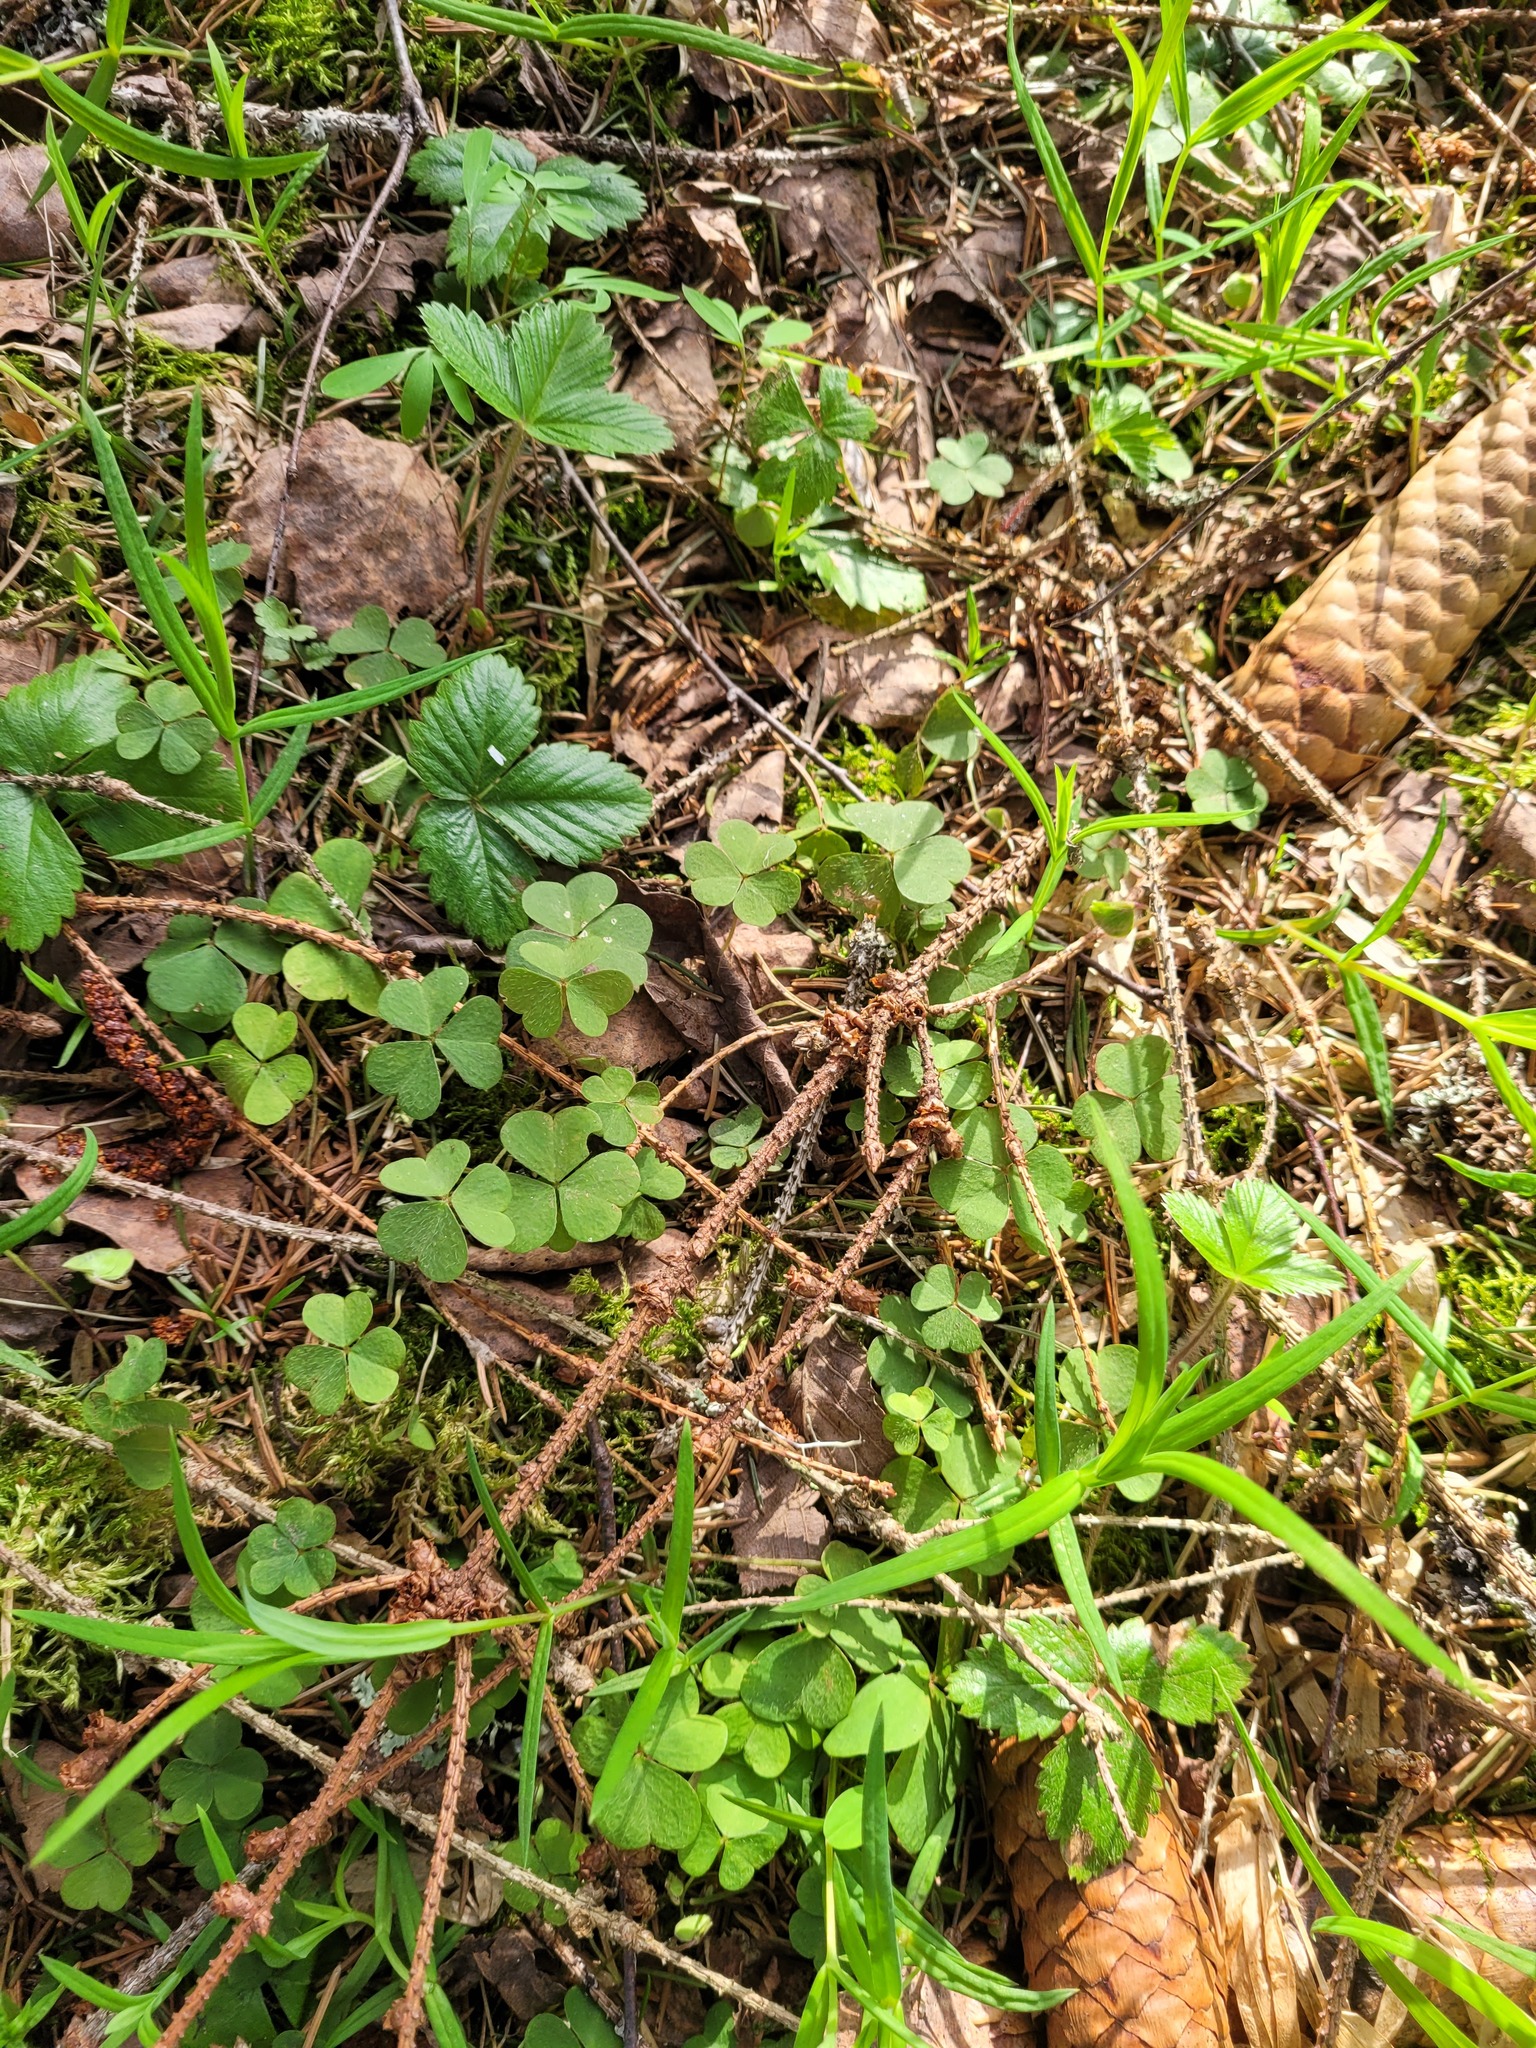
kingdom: Plantae
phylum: Tracheophyta
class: Magnoliopsida
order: Oxalidales
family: Oxalidaceae
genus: Oxalis
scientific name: Oxalis acetosella
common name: Wood-sorrel
